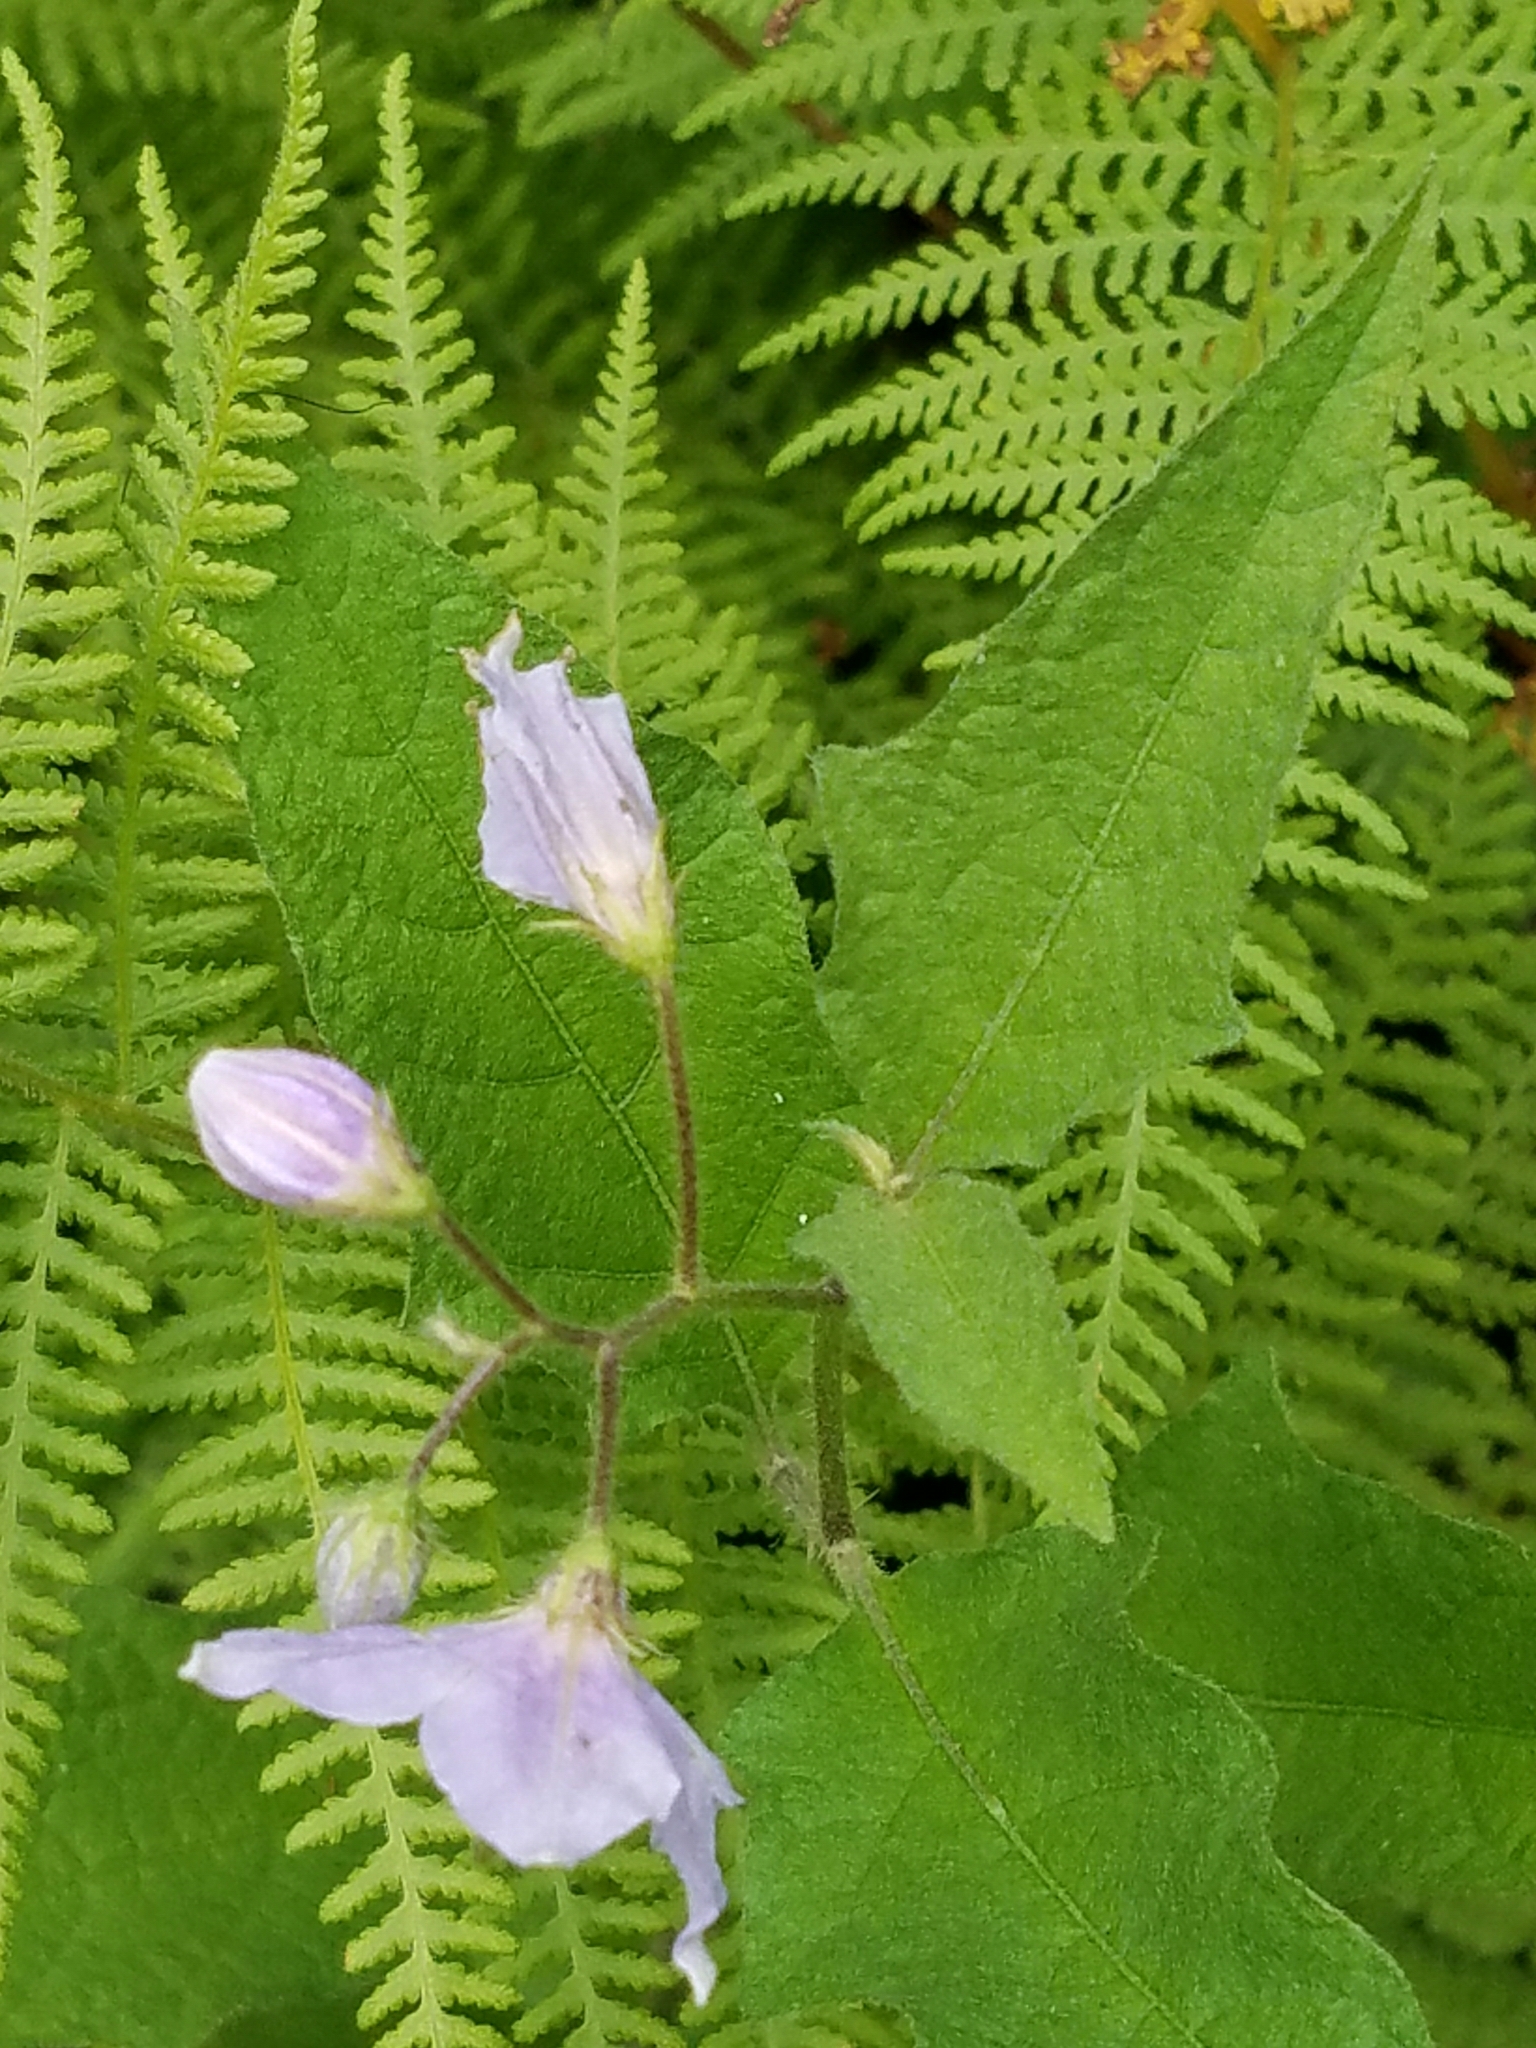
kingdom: Plantae
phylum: Tracheophyta
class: Magnoliopsida
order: Solanales
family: Solanaceae
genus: Solanum
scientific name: Solanum carolinense
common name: Horse-nettle
